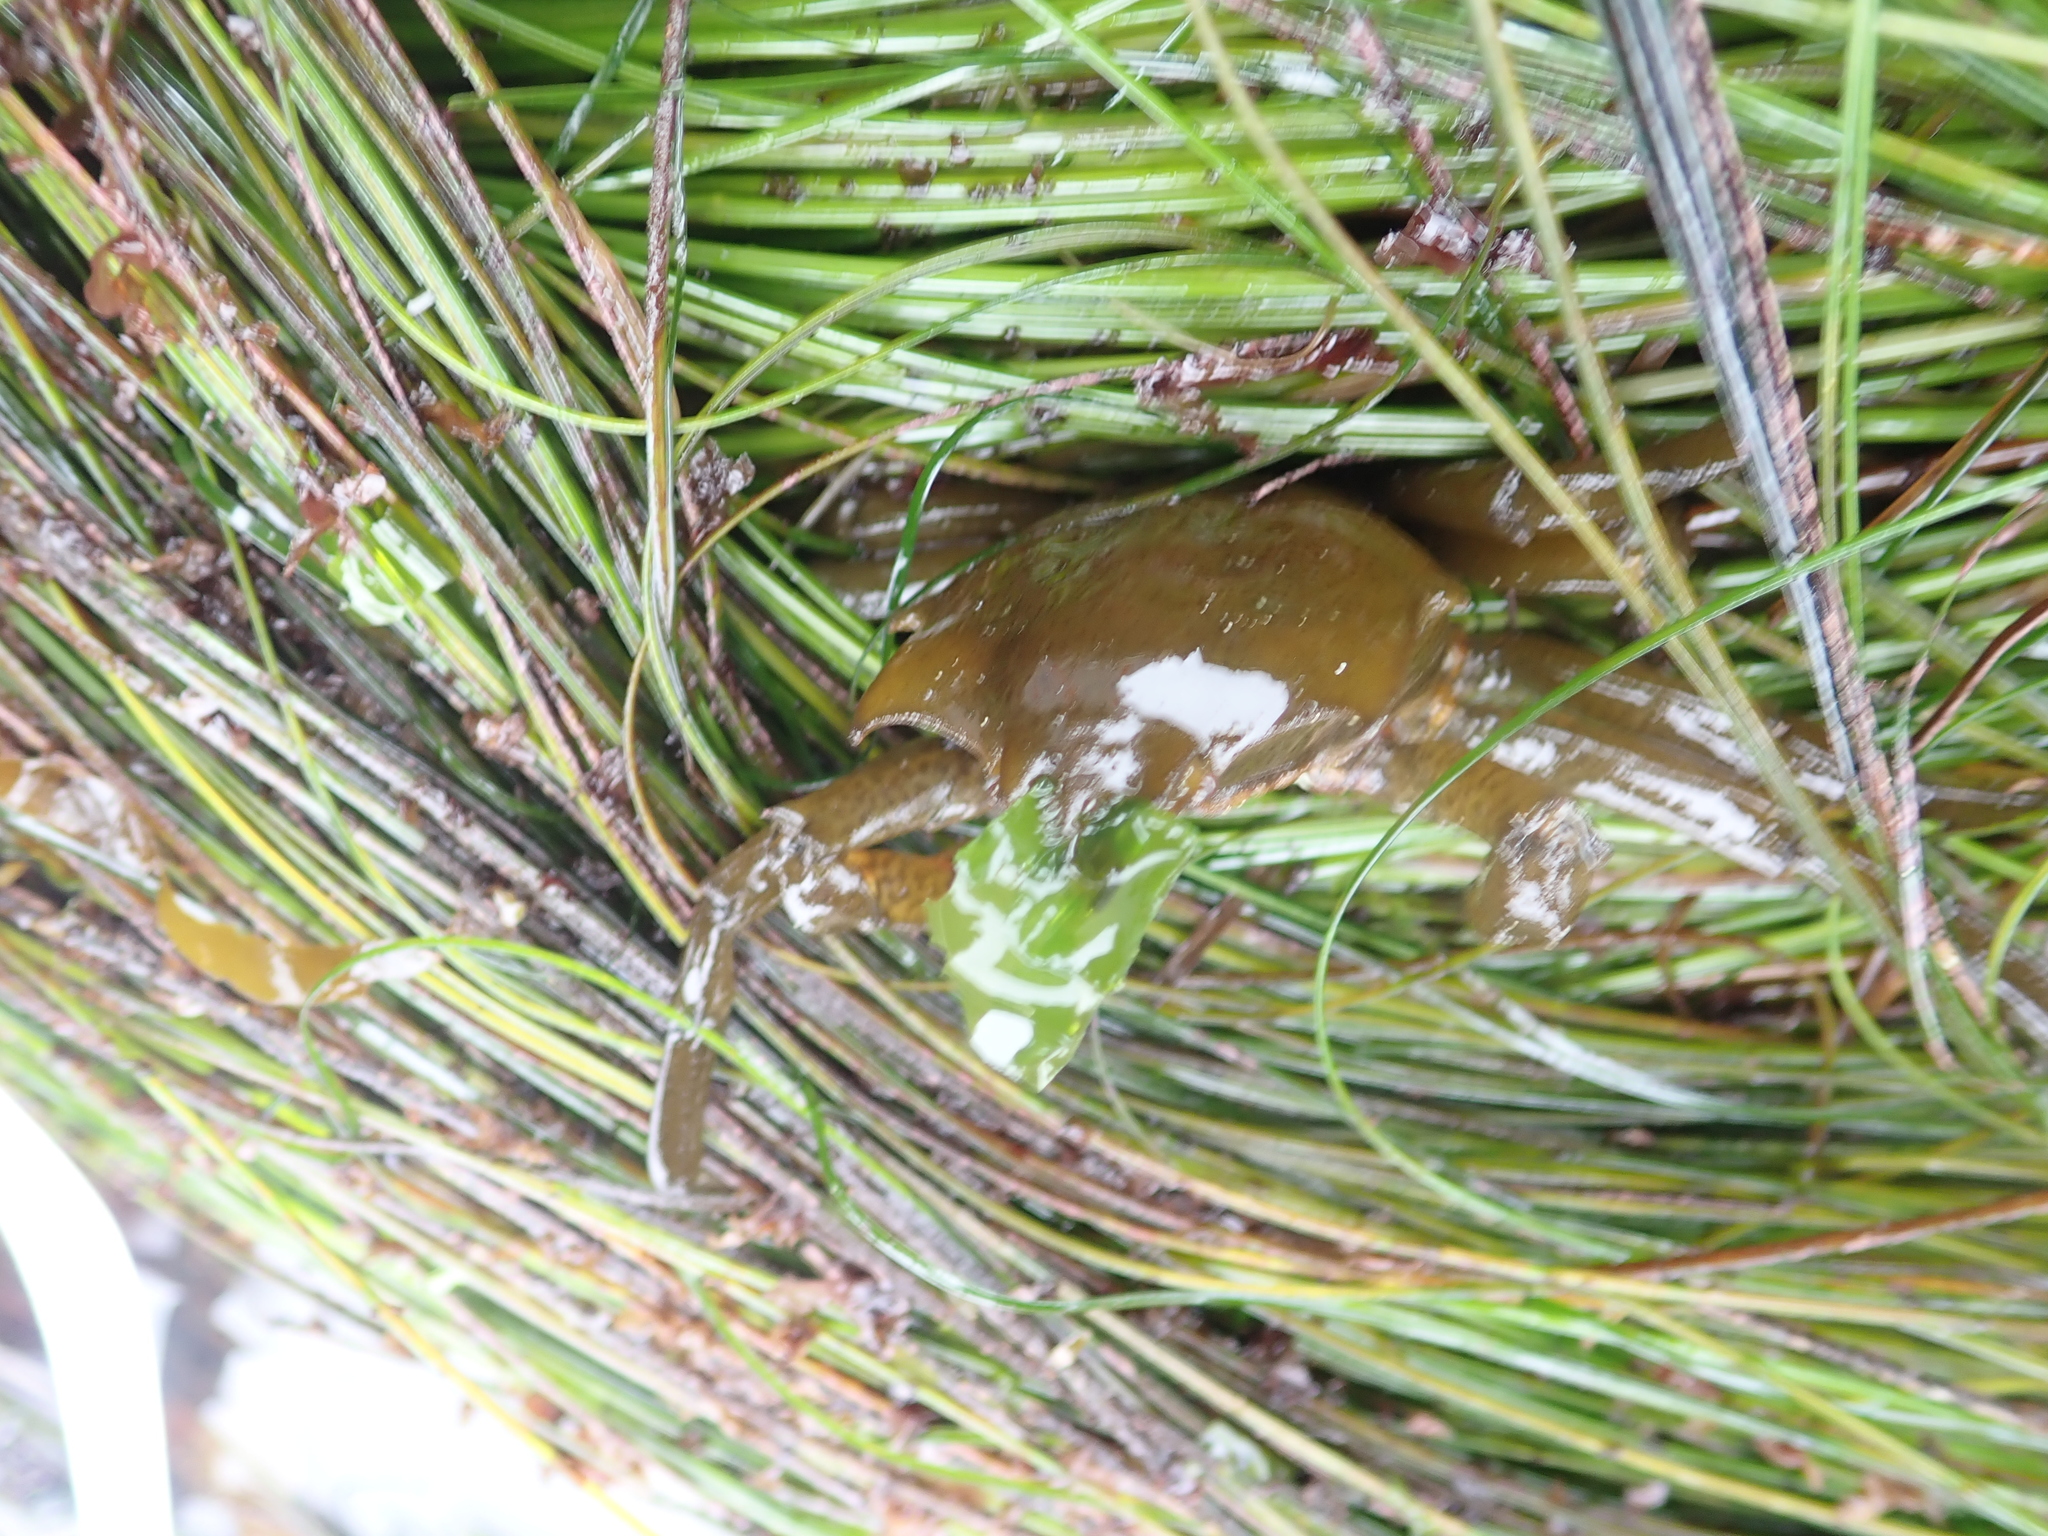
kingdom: Animalia
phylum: Arthropoda
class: Malacostraca
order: Decapoda
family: Epialtidae
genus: Pugettia
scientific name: Pugettia producta
